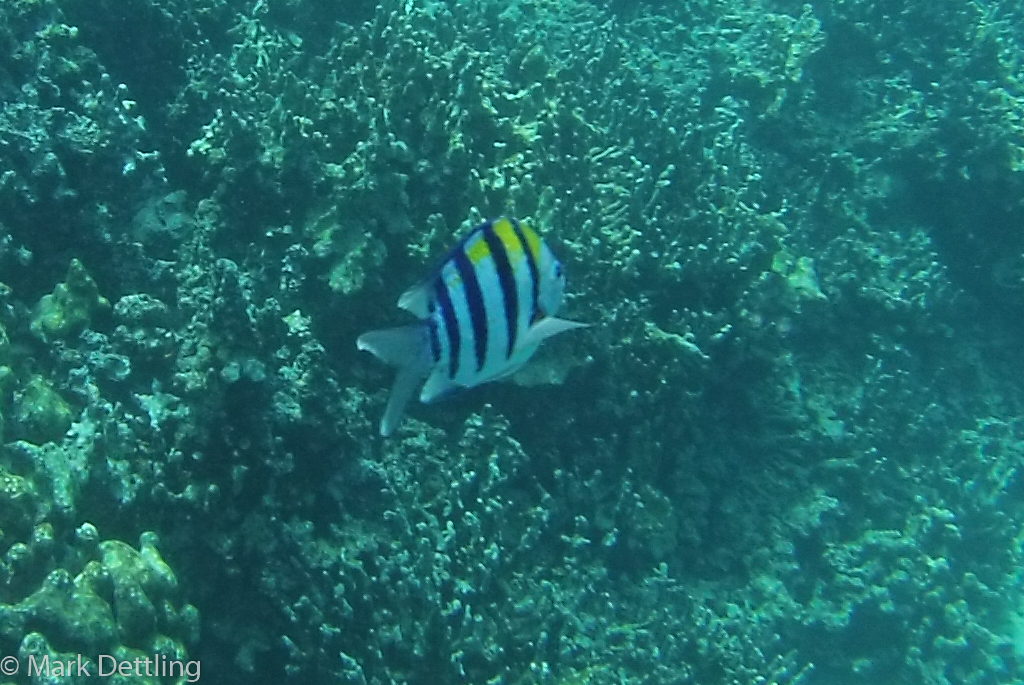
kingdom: Animalia
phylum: Chordata
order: Perciformes
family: Pomacentridae
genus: Abudefduf
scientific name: Abudefduf vaigiensis
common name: Indo-pacific sergeant
